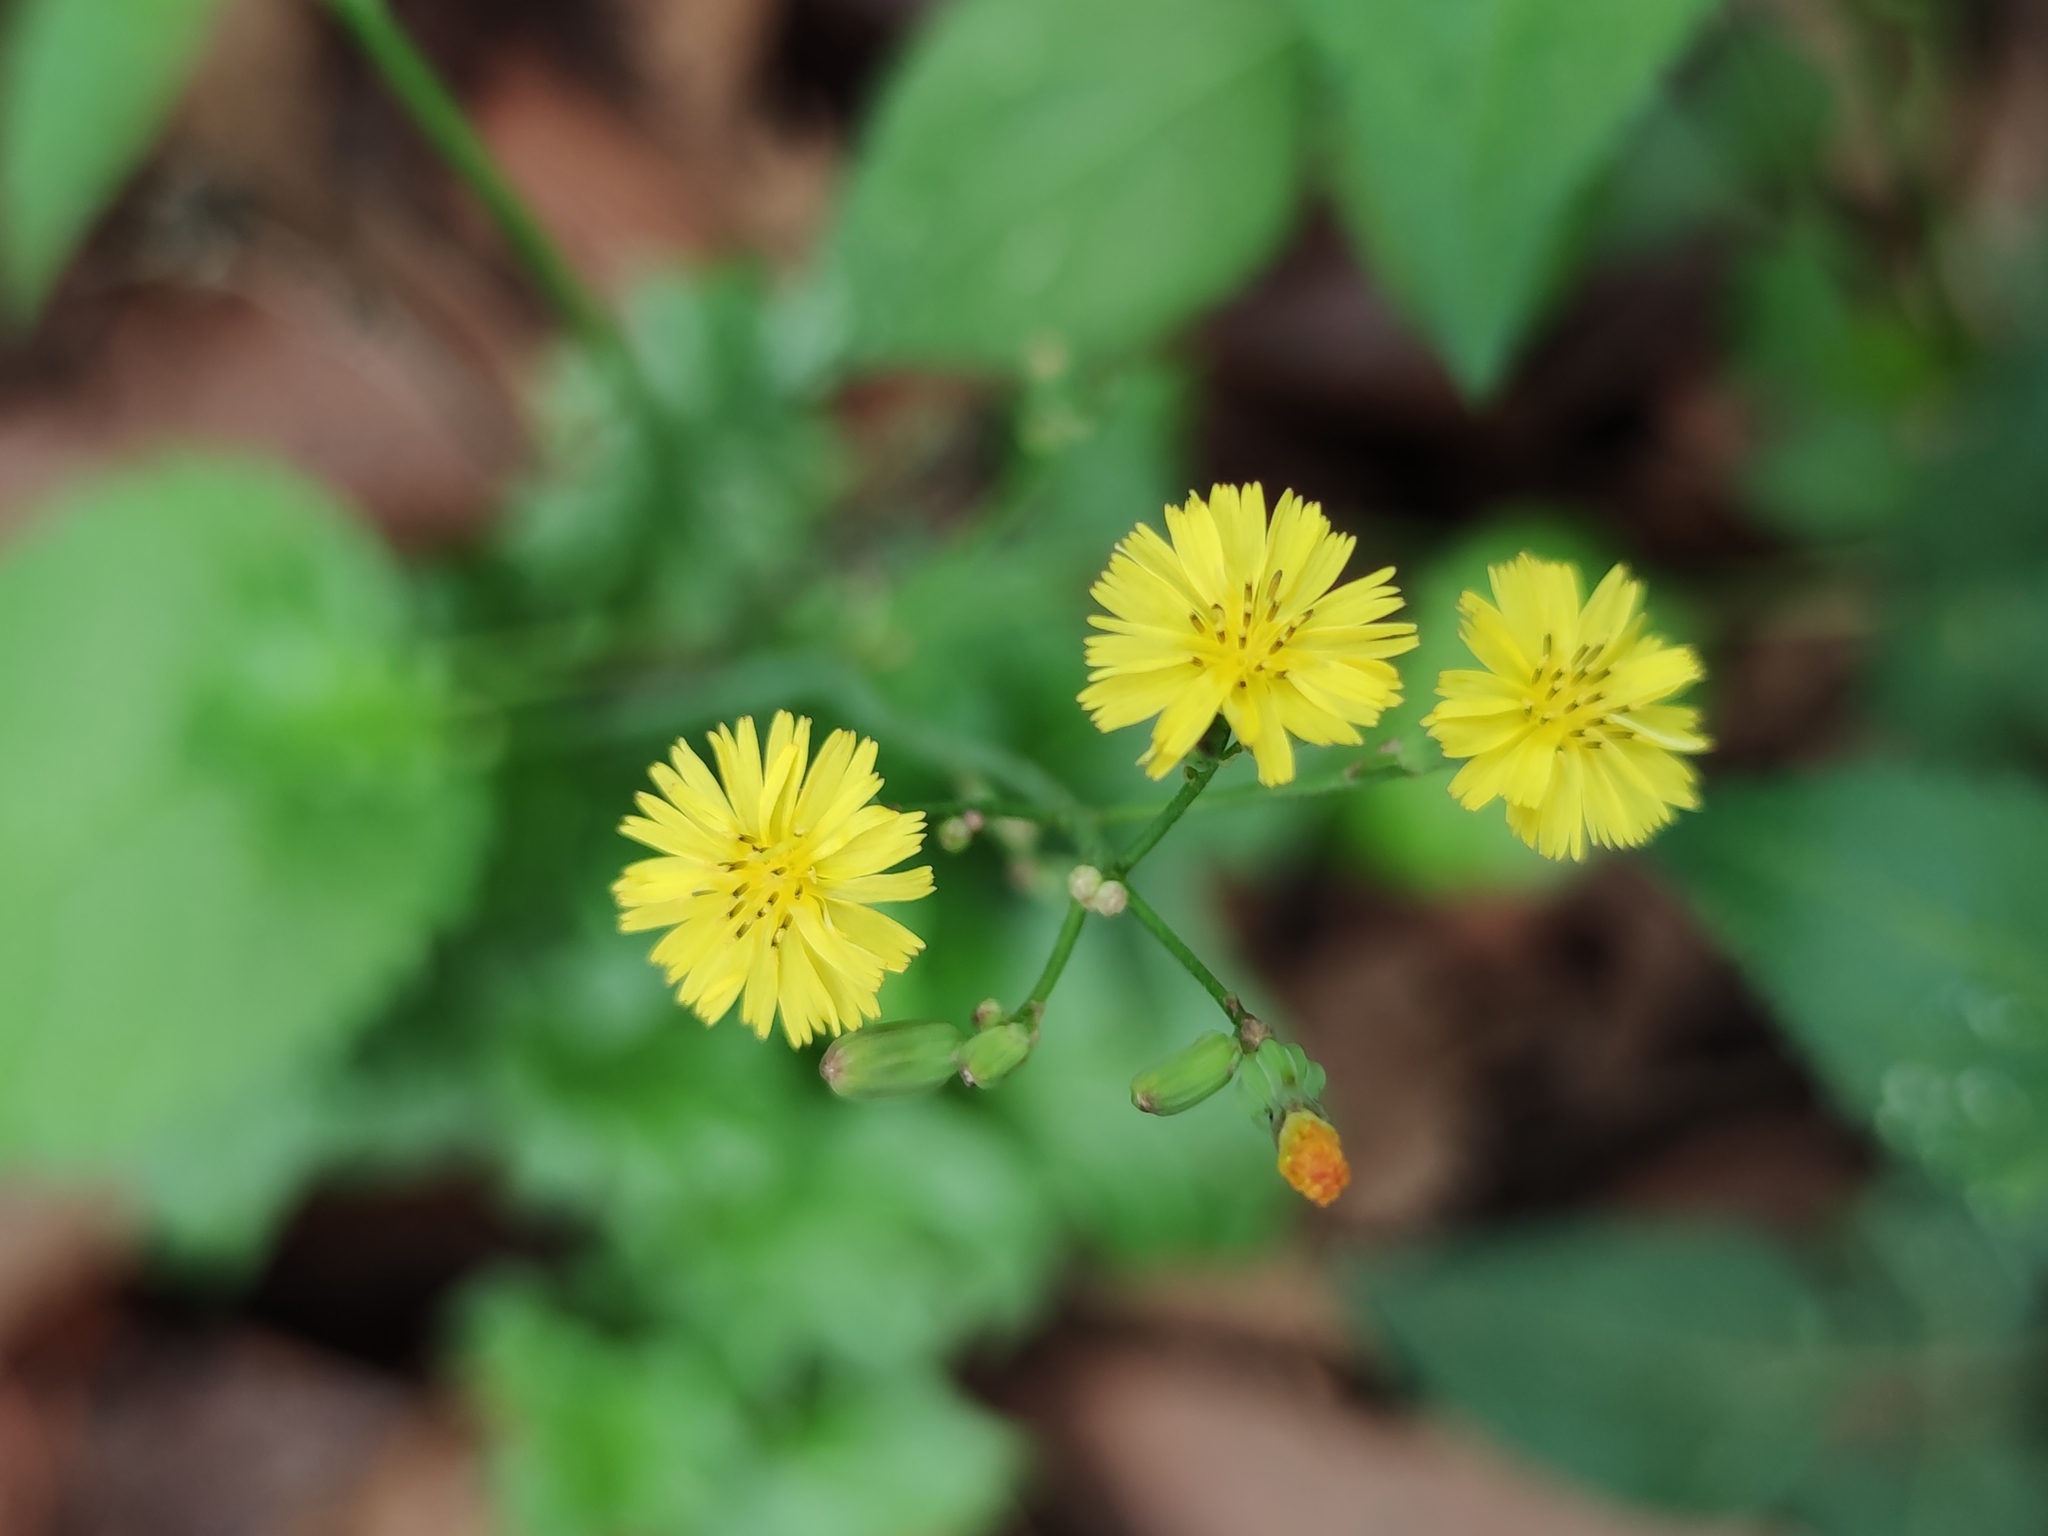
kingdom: Plantae
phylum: Tracheophyta
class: Magnoliopsida
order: Asterales
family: Asteraceae
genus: Youngia
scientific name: Youngia japonica
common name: Oriental false hawksbeard
